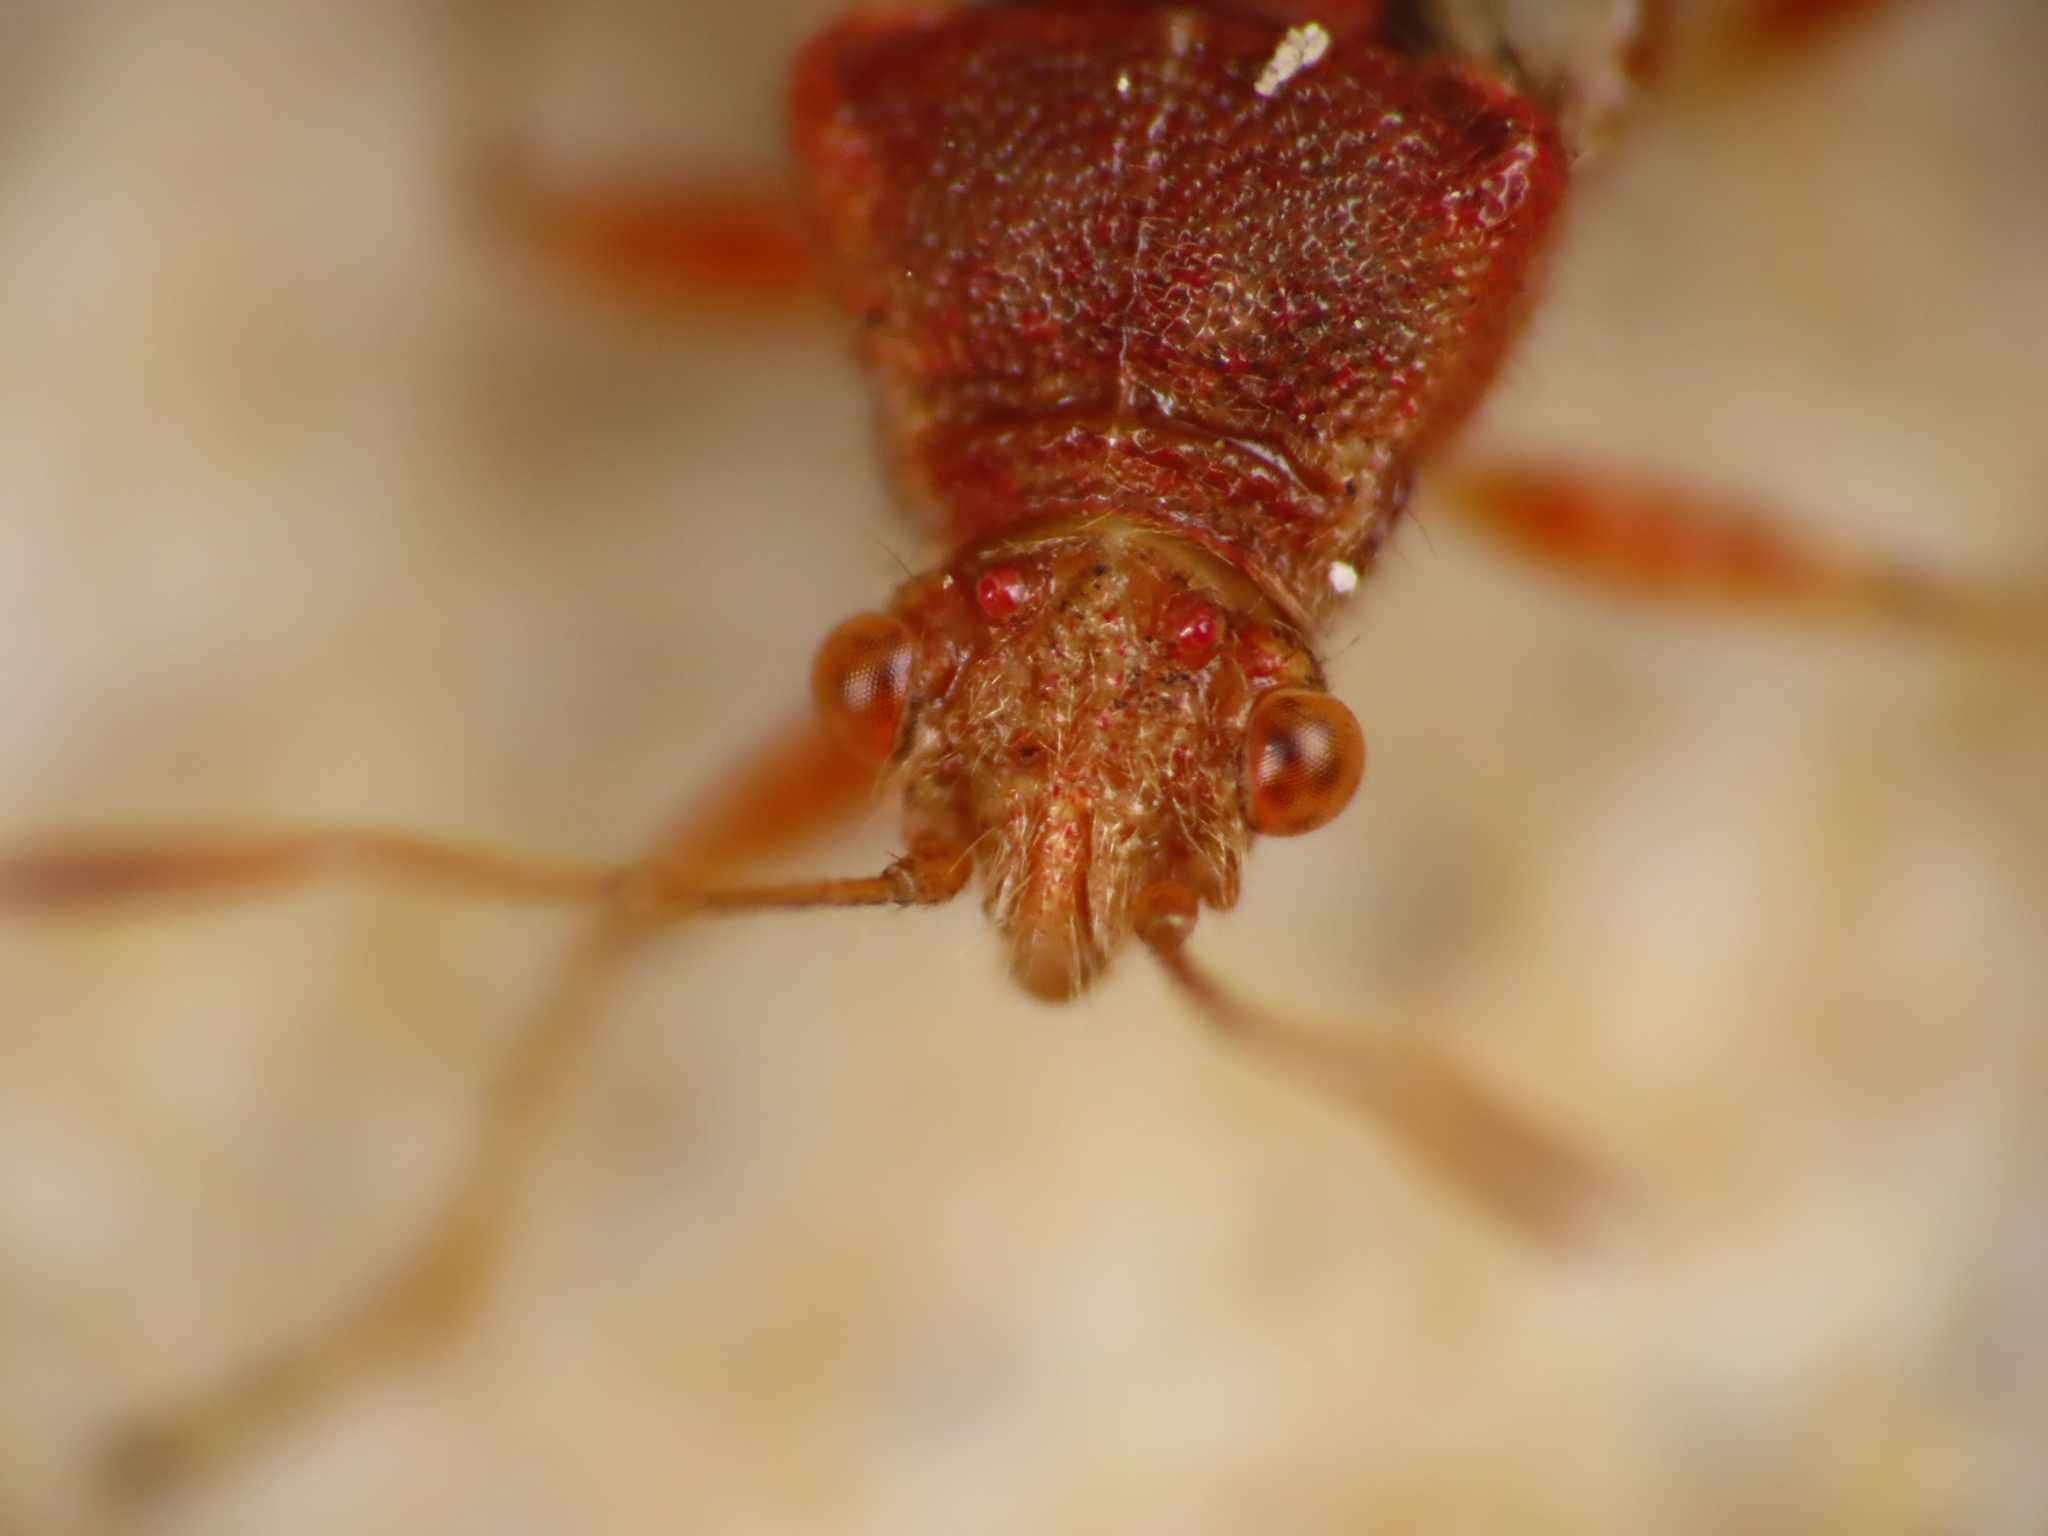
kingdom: Animalia
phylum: Arthropoda
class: Insecta
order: Hemiptera
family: Rhopalidae
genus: Rhopalus
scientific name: Rhopalus subrufus
